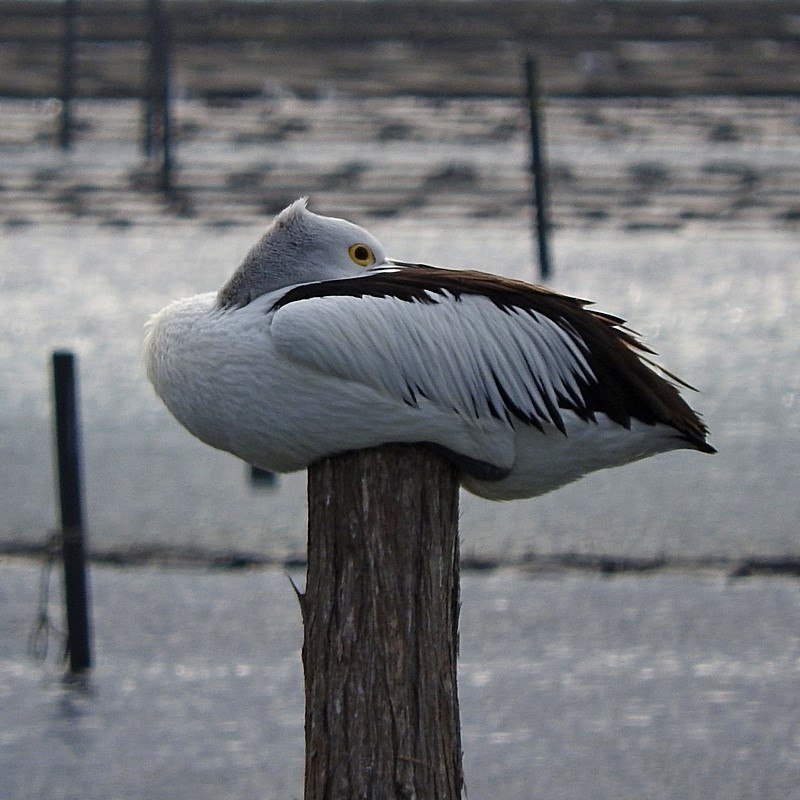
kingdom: Animalia
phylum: Chordata
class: Aves
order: Pelecaniformes
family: Pelecanidae
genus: Pelecanus
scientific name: Pelecanus conspicillatus
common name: Australian pelican
